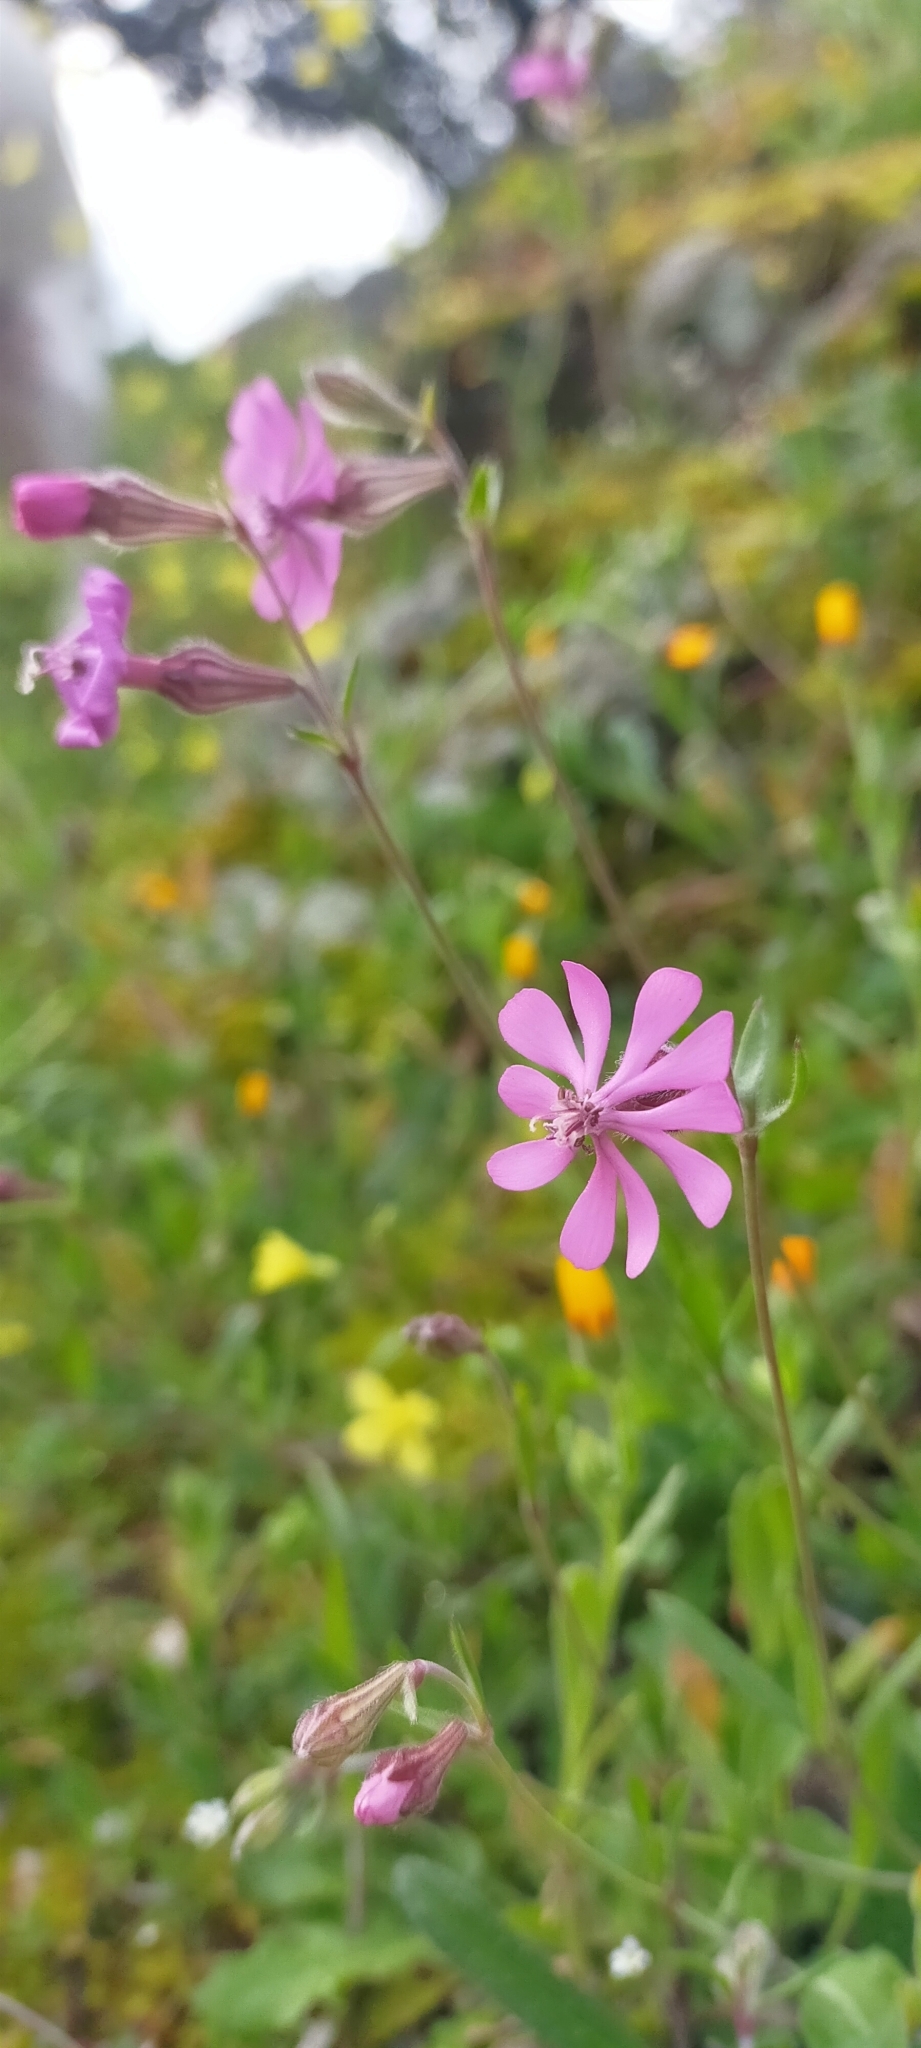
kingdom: Plantae
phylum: Tracheophyta
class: Magnoliopsida
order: Caryophyllales
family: Caryophyllaceae
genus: Silene
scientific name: Silene colorata
